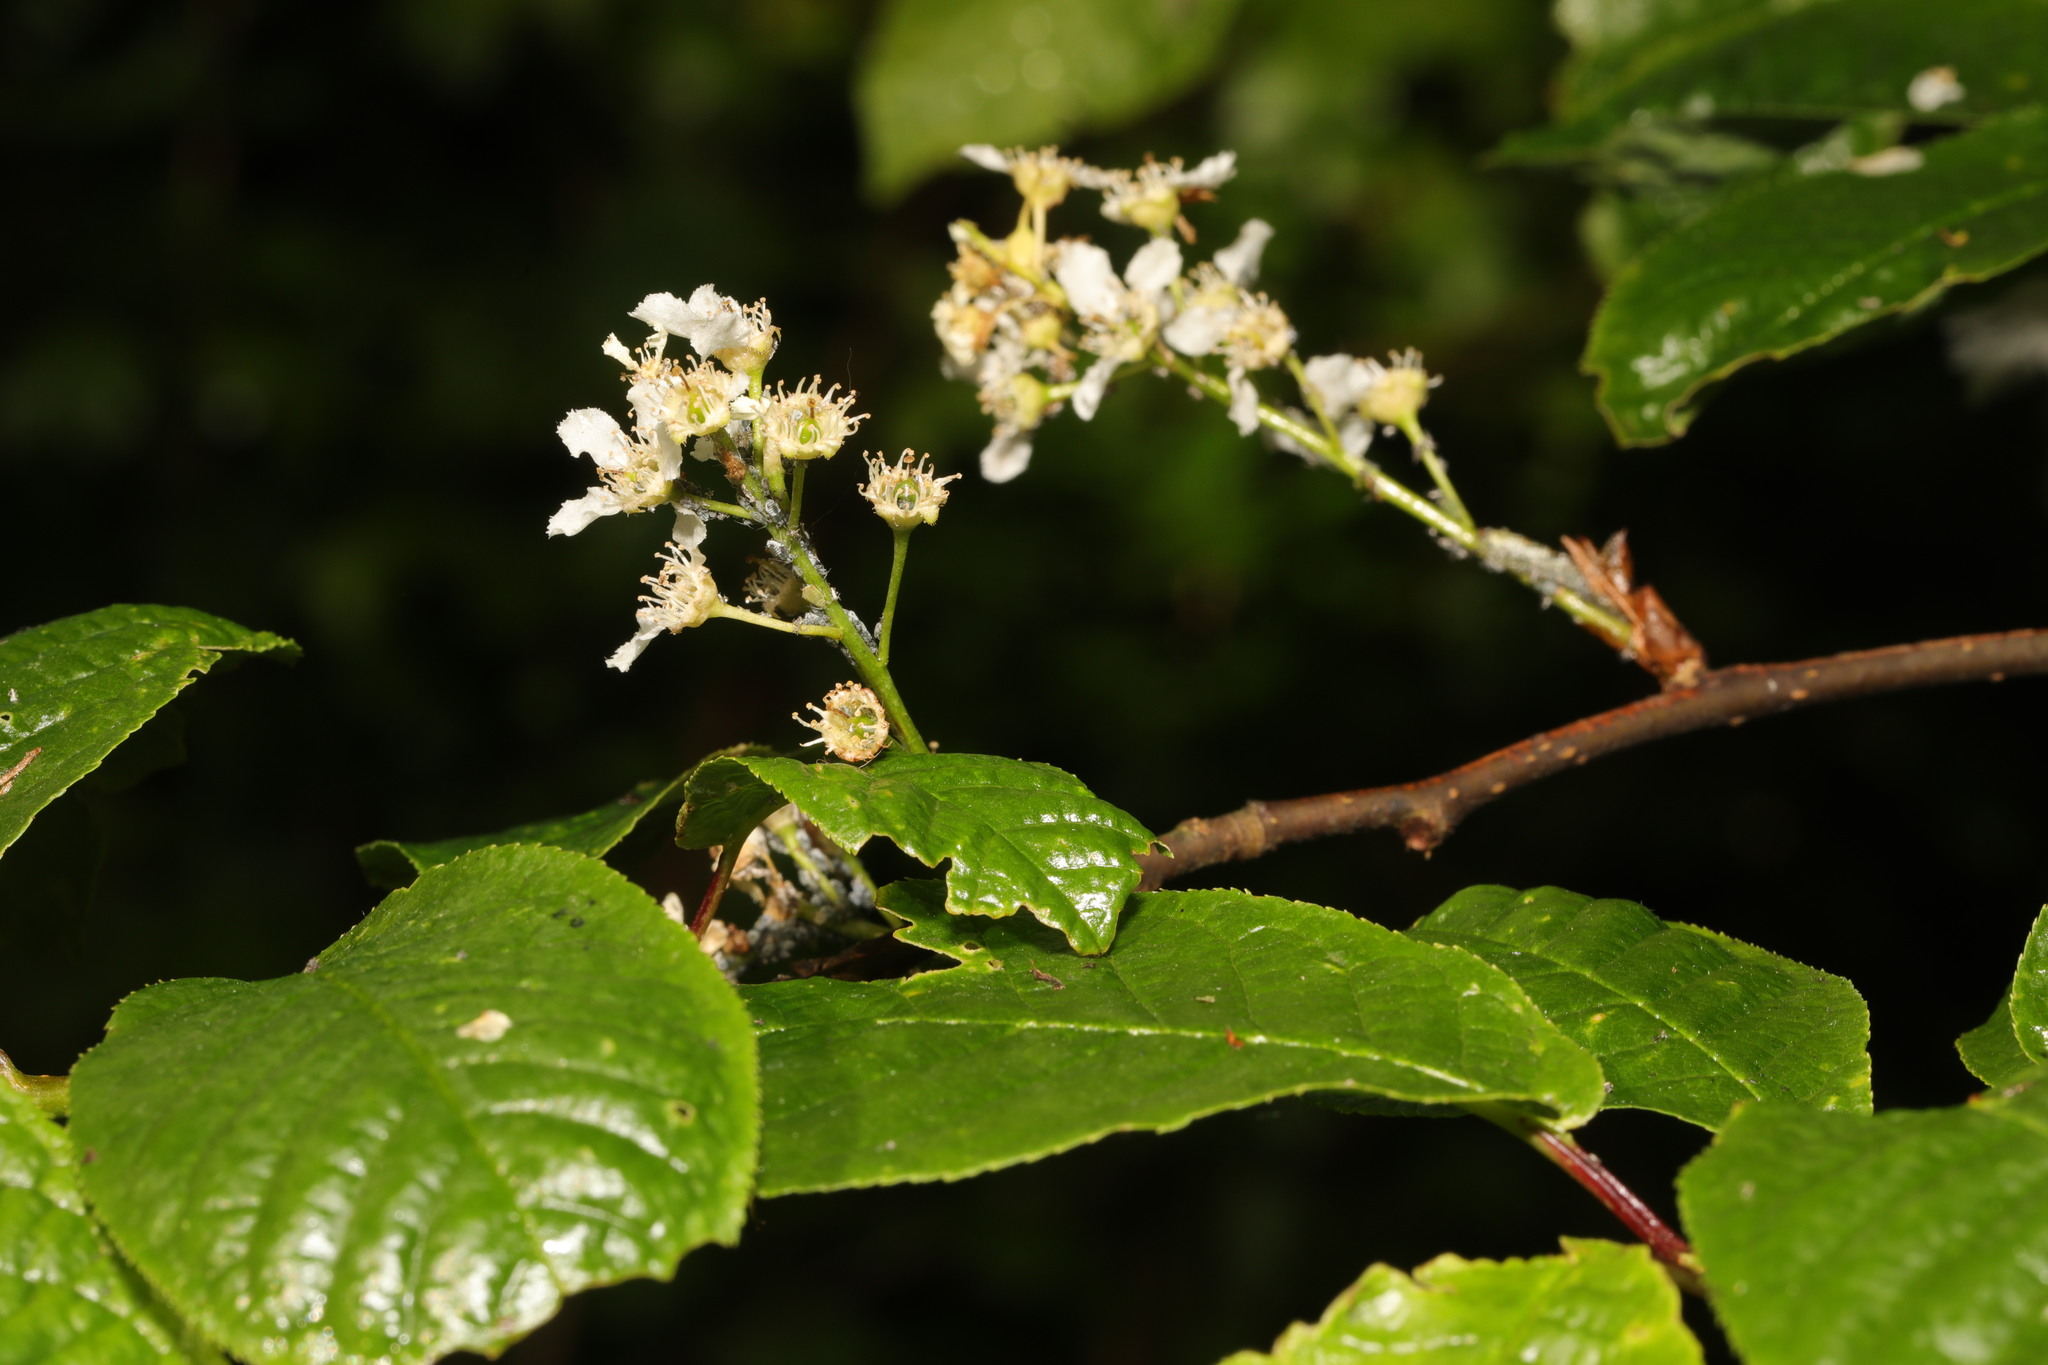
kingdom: Plantae
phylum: Tracheophyta
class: Magnoliopsida
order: Rosales
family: Rosaceae
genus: Prunus
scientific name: Prunus padus
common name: Bird cherry
